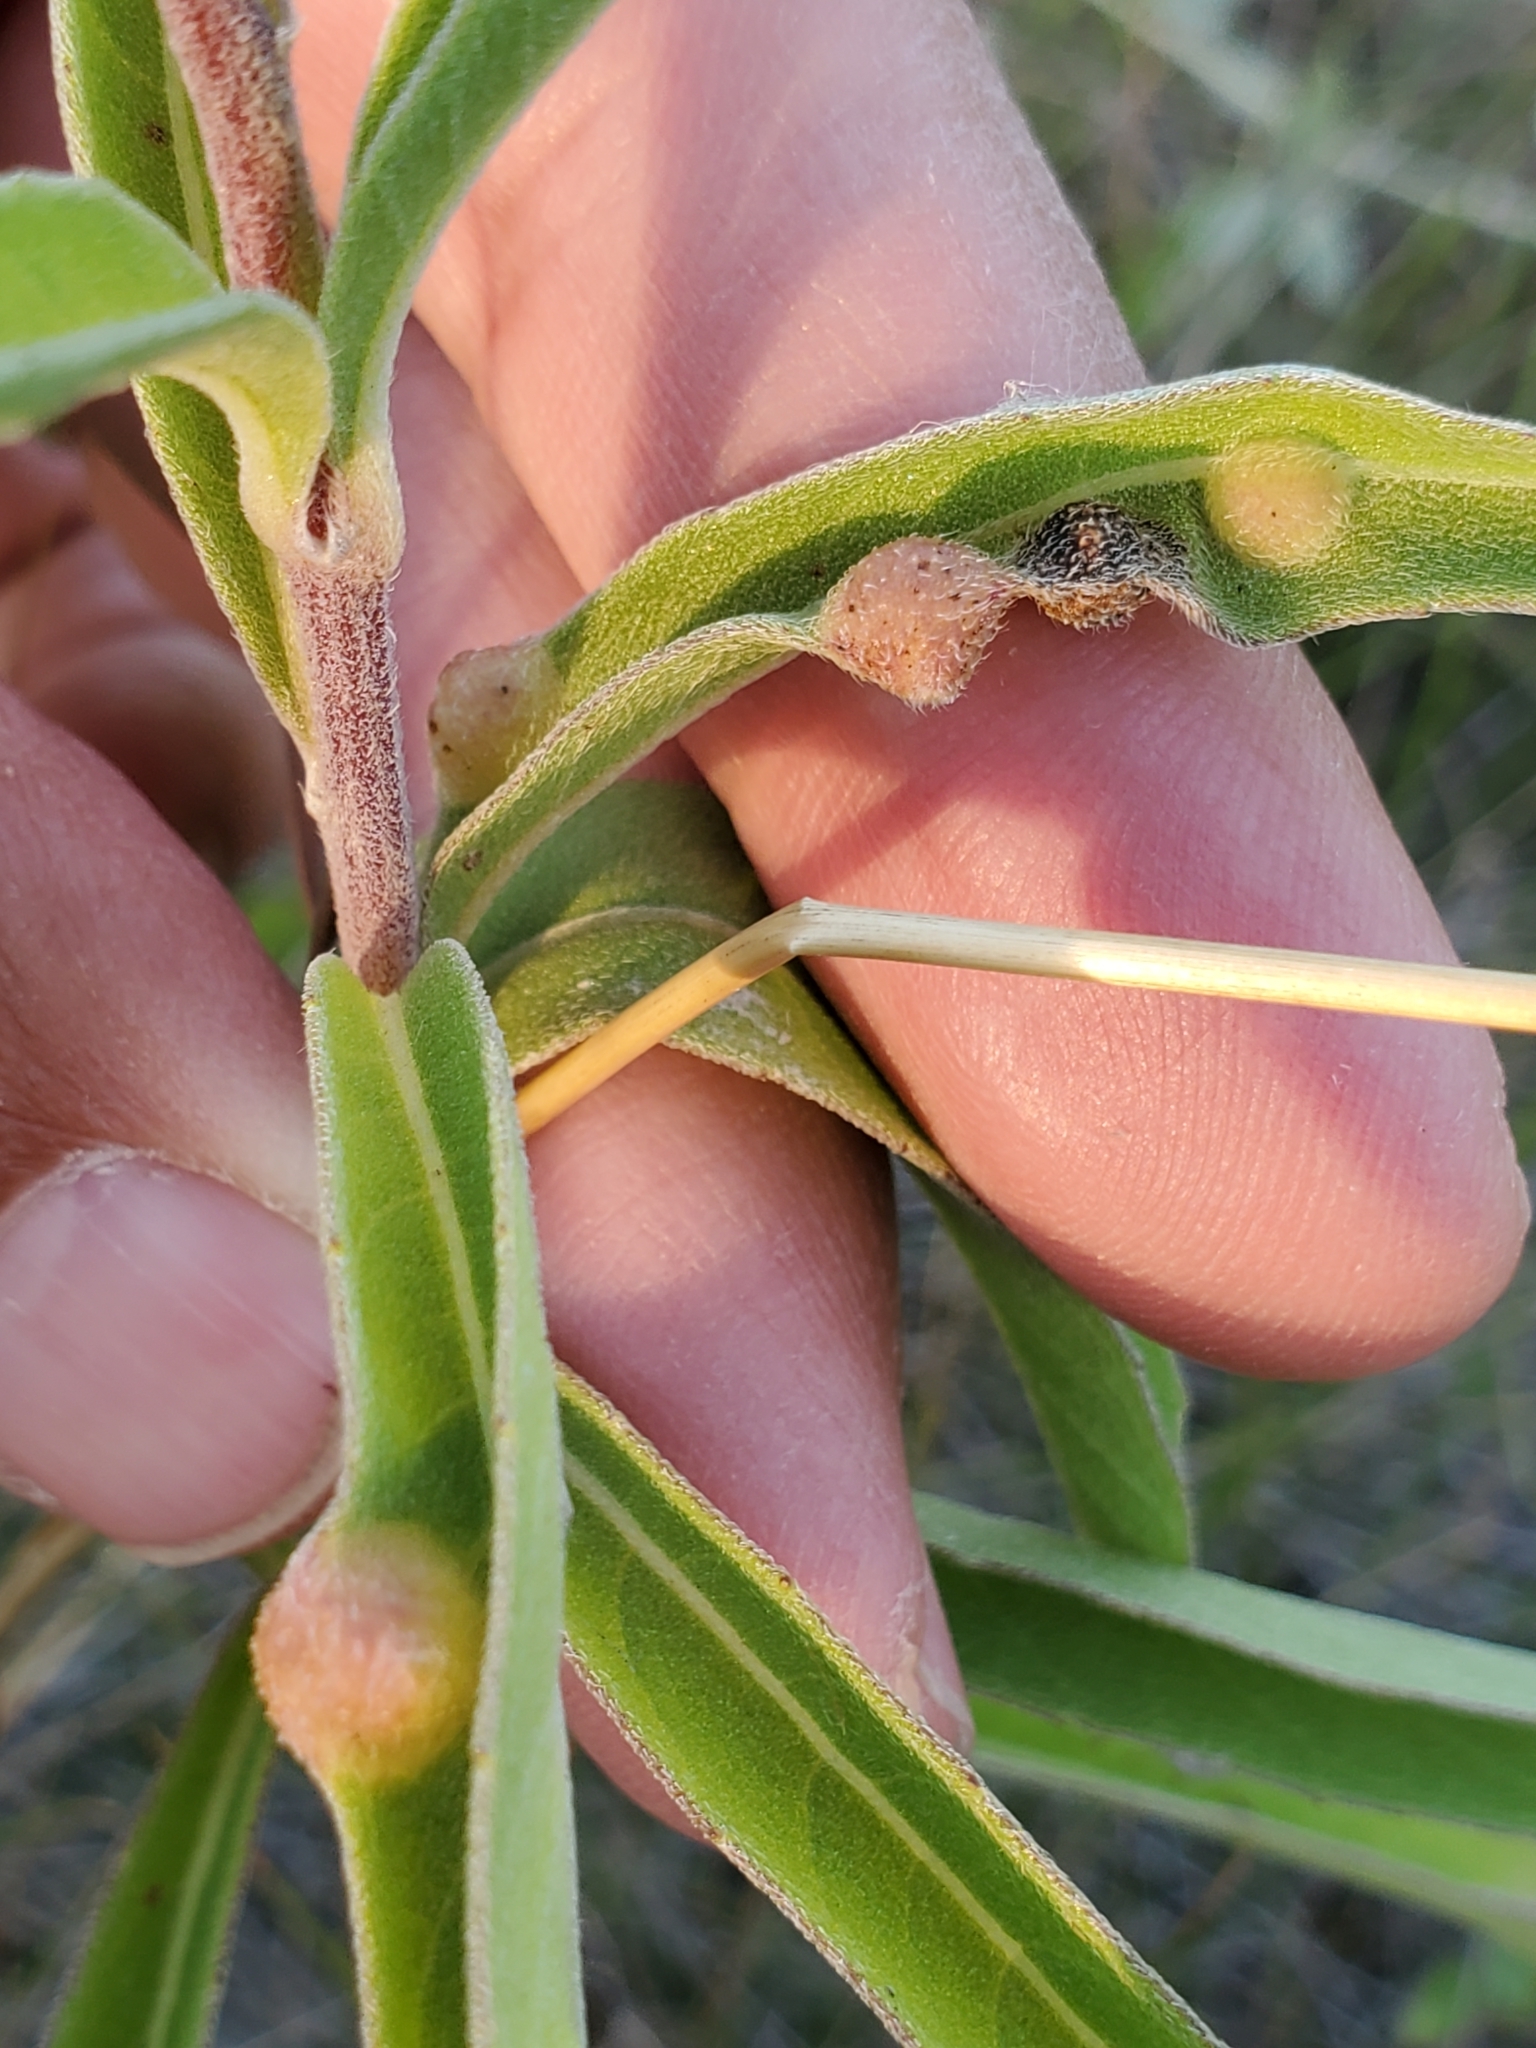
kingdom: Animalia
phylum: Arthropoda
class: Insecta
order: Diptera
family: Cecidomyiidae
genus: Pilodiplosis
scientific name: Pilodiplosis helianthibulla
